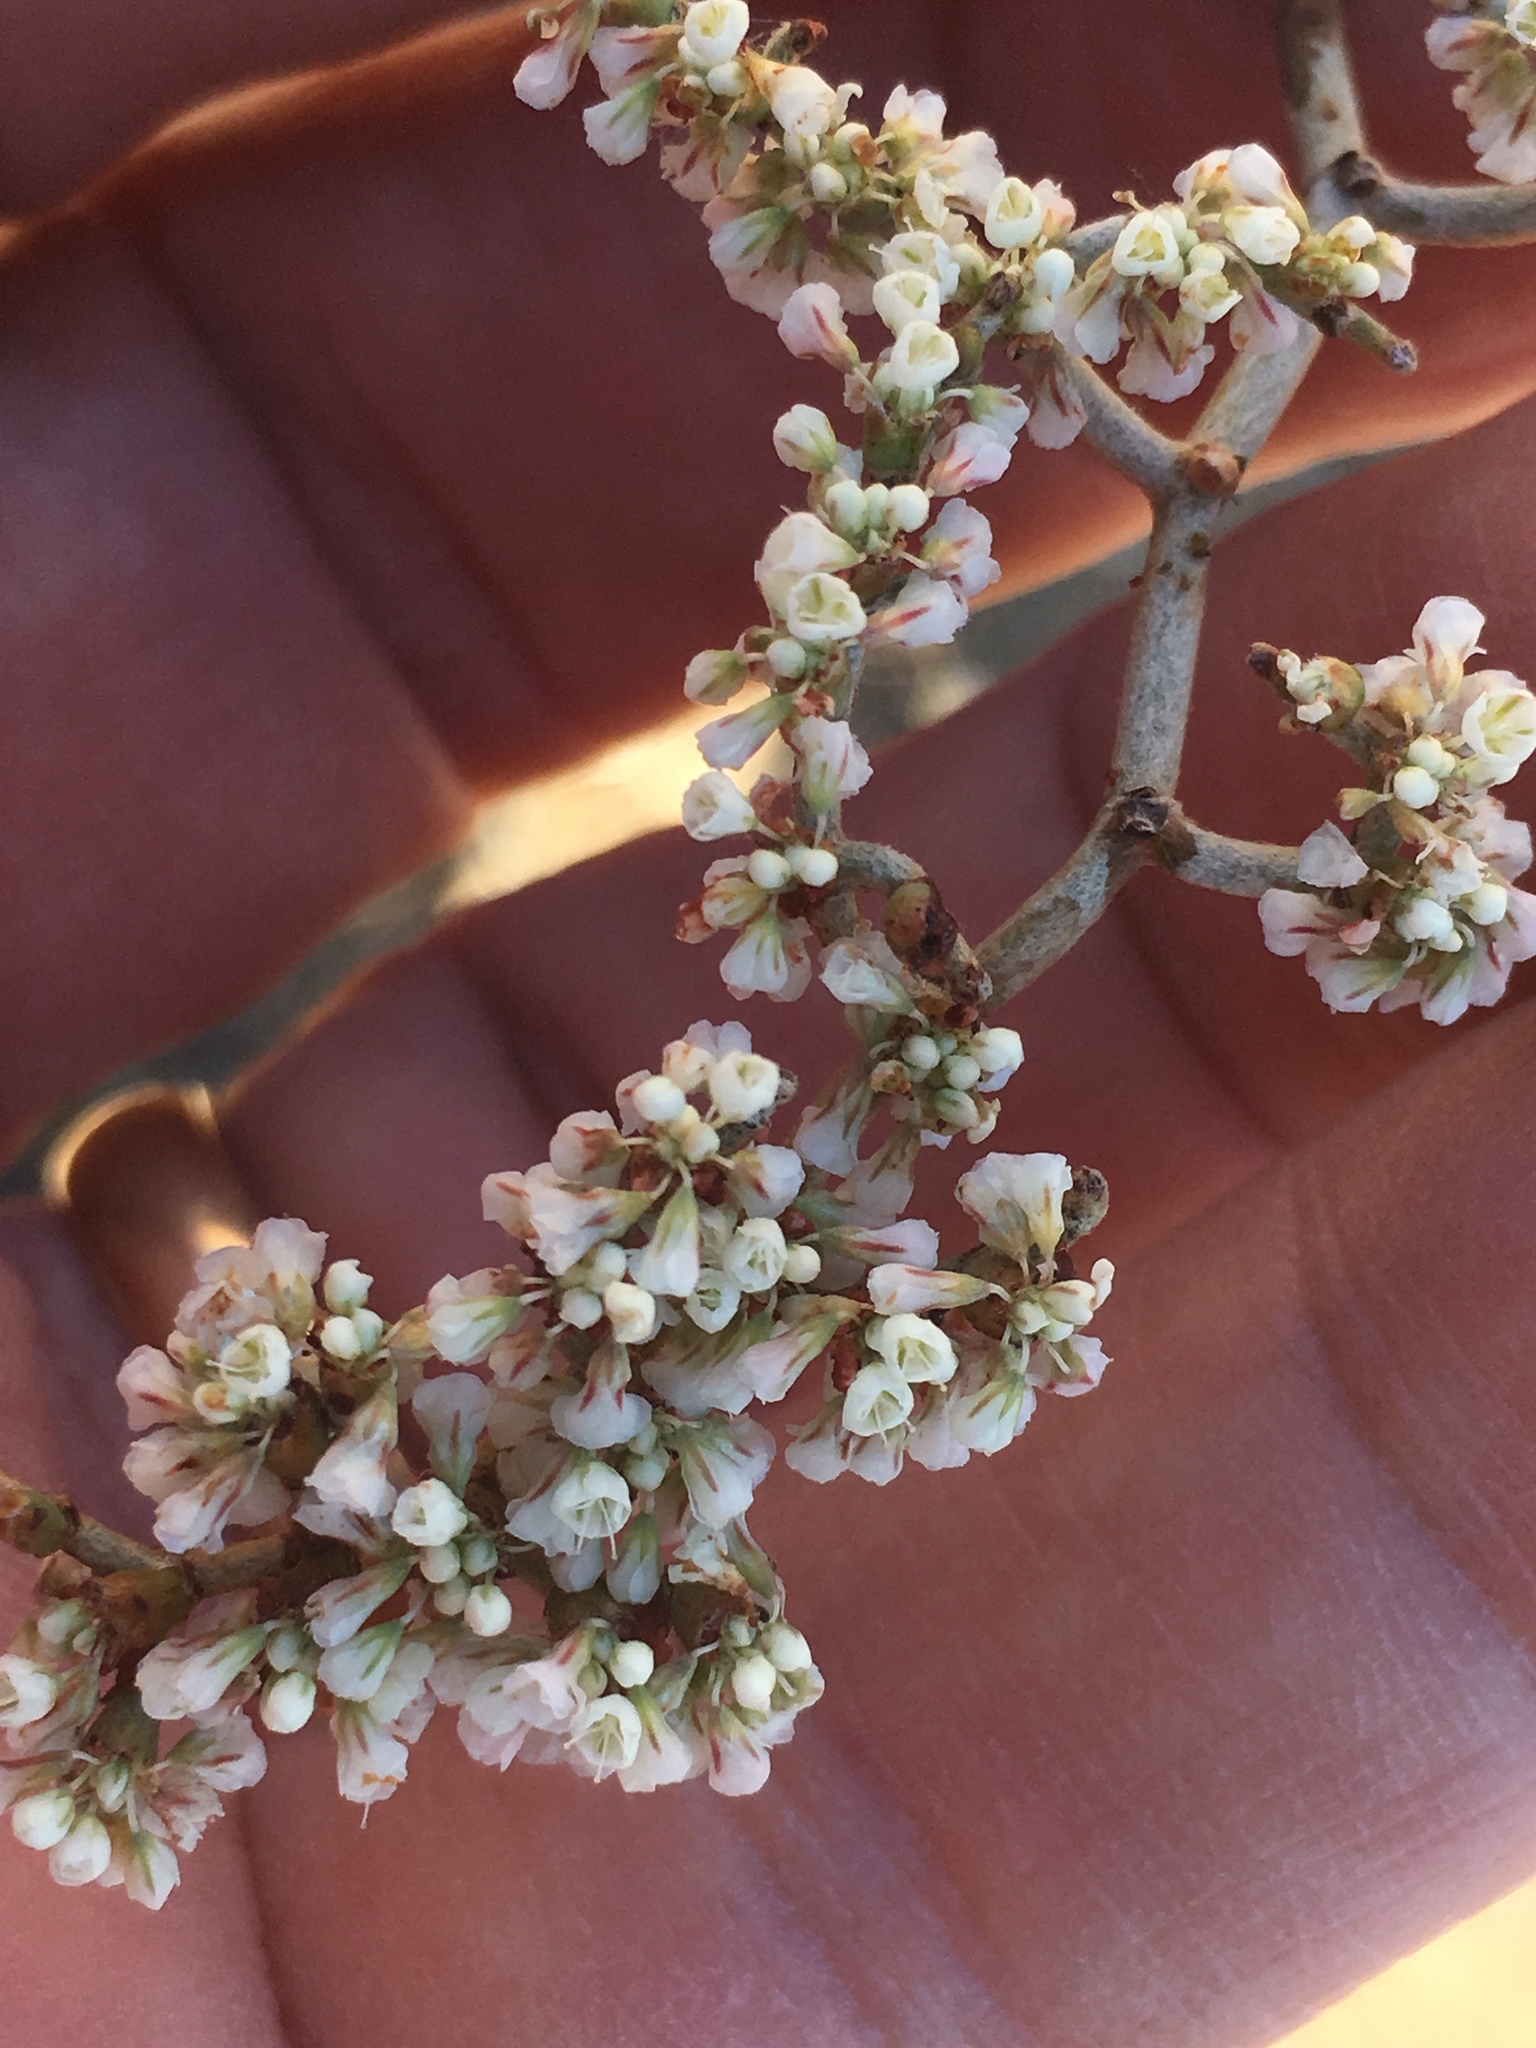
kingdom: Plantae
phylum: Tracheophyta
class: Magnoliopsida
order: Caryophyllales
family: Polygonaceae
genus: Eriogonum
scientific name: Eriogonum plumatella
